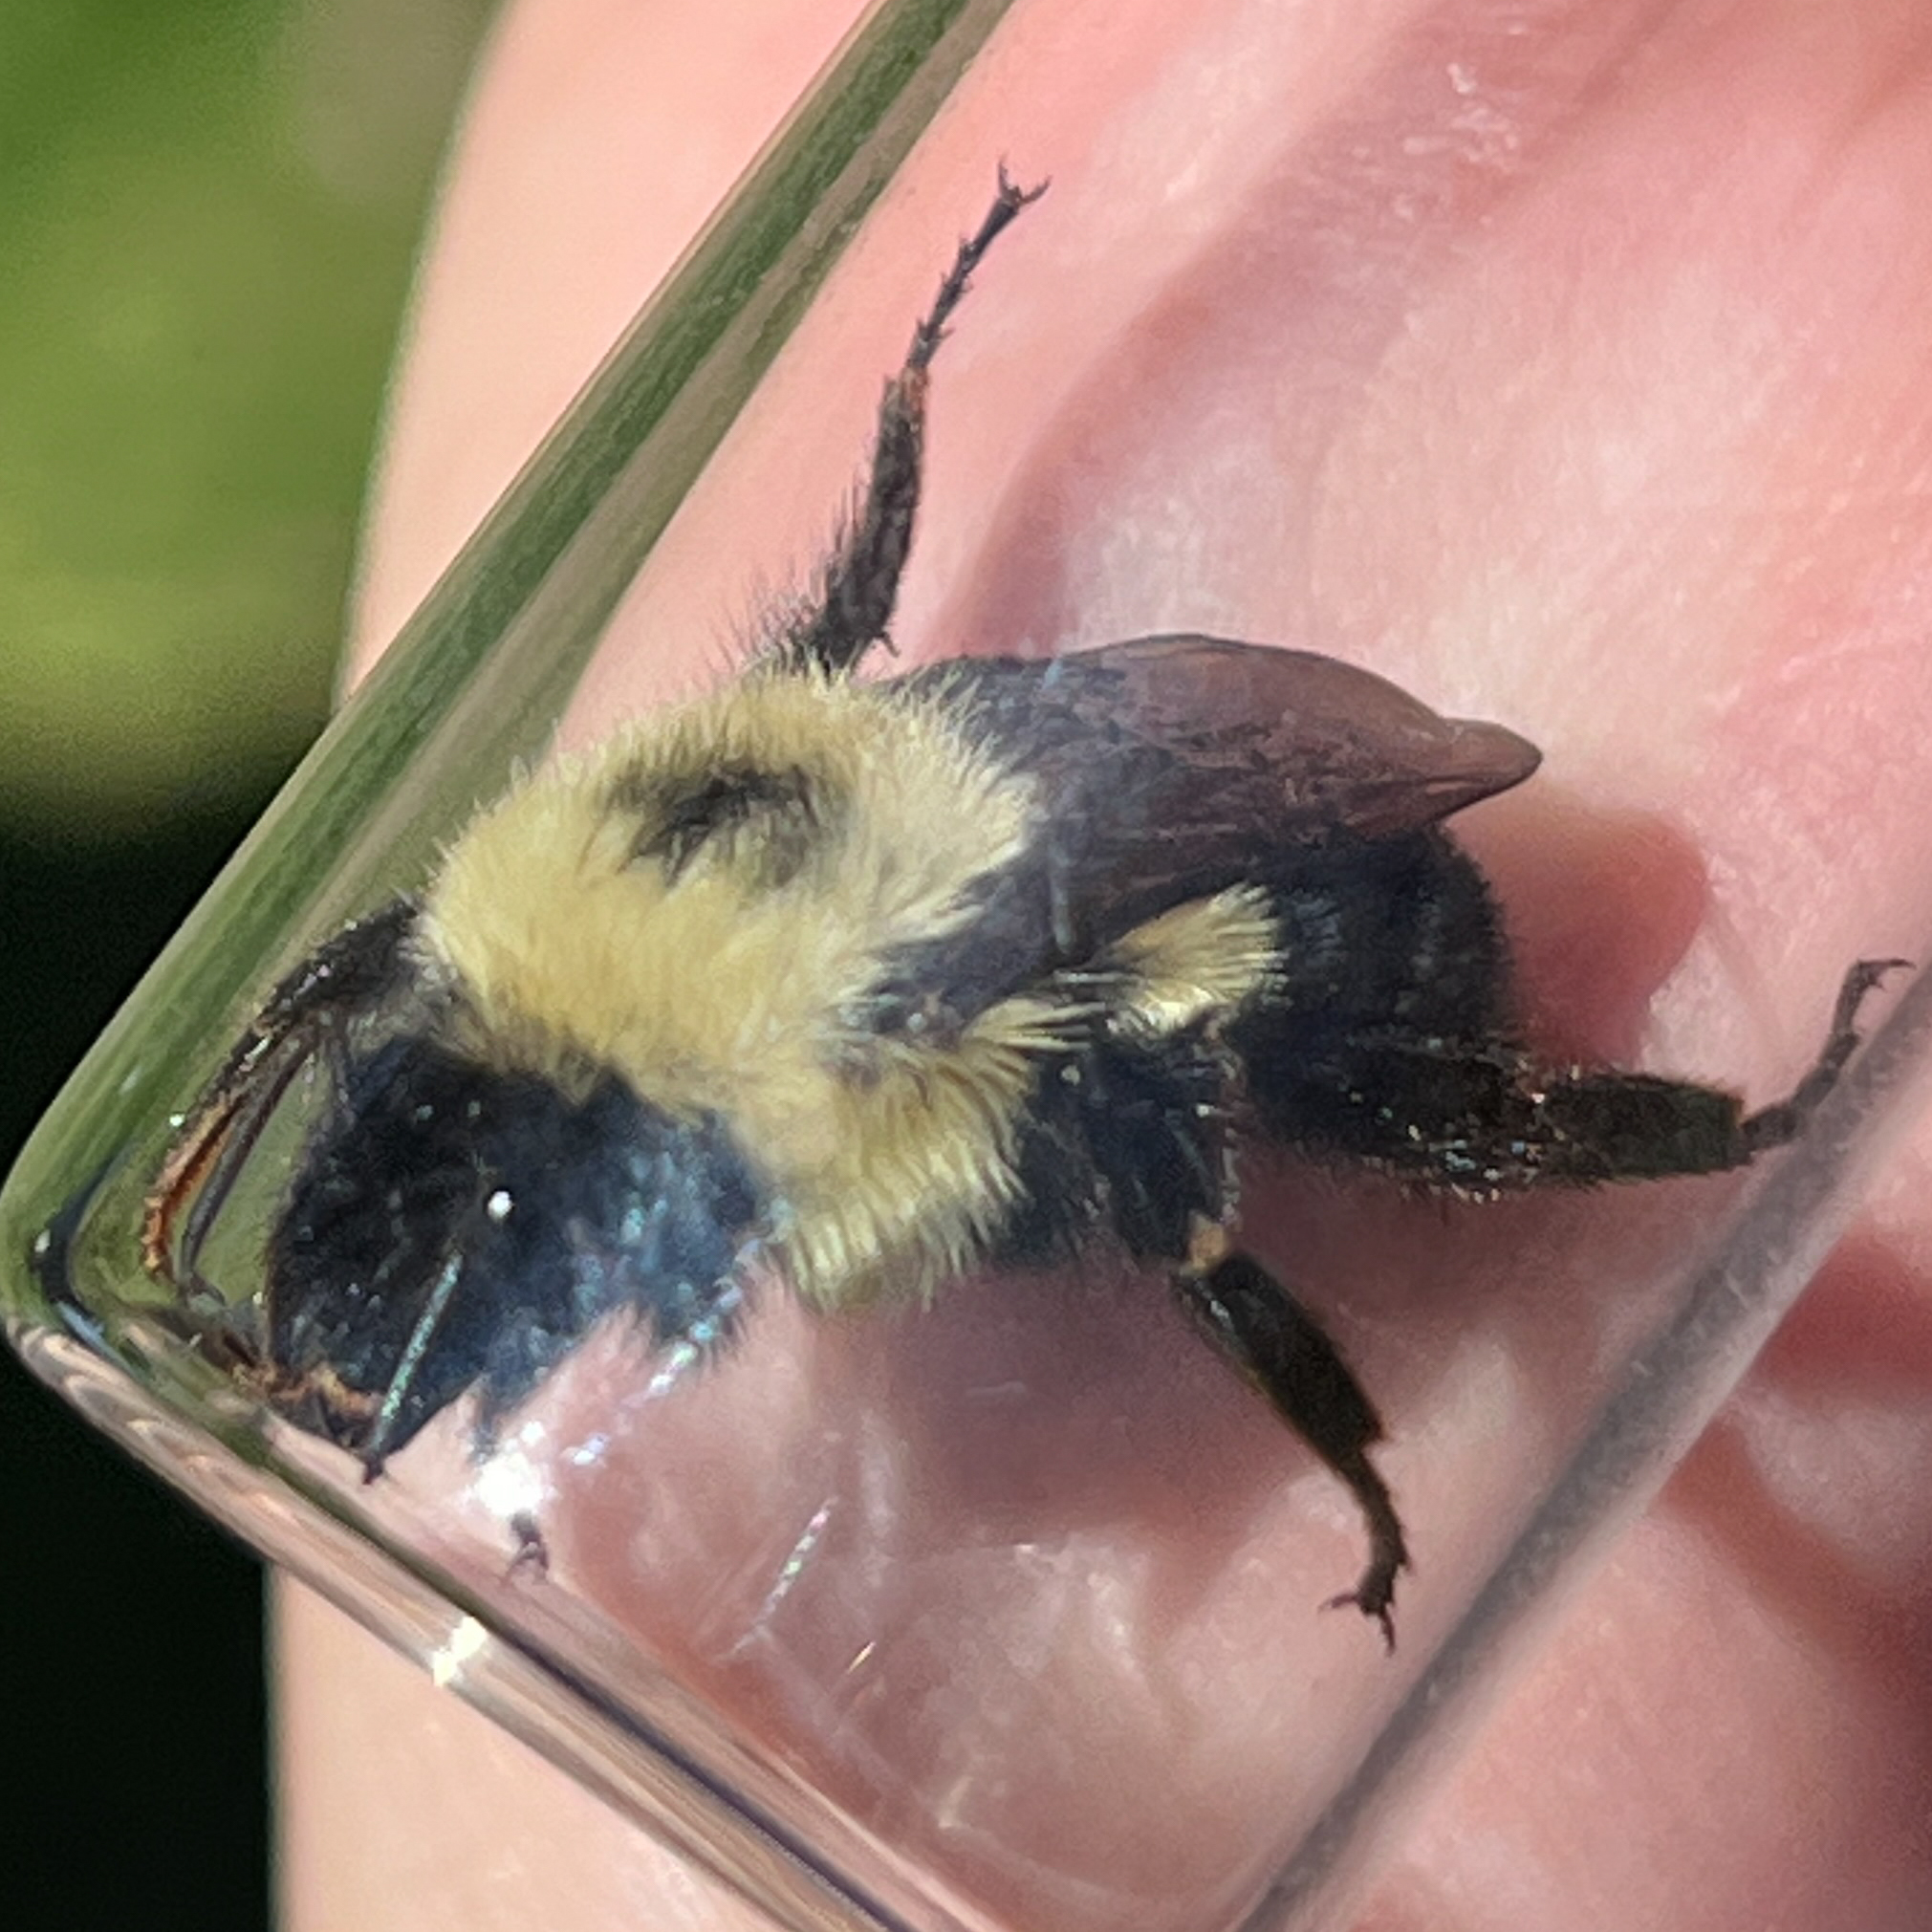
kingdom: Animalia
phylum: Arthropoda
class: Insecta
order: Hymenoptera
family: Apidae
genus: Bombus
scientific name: Bombus bimaculatus
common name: Two-spotted bumble bee
